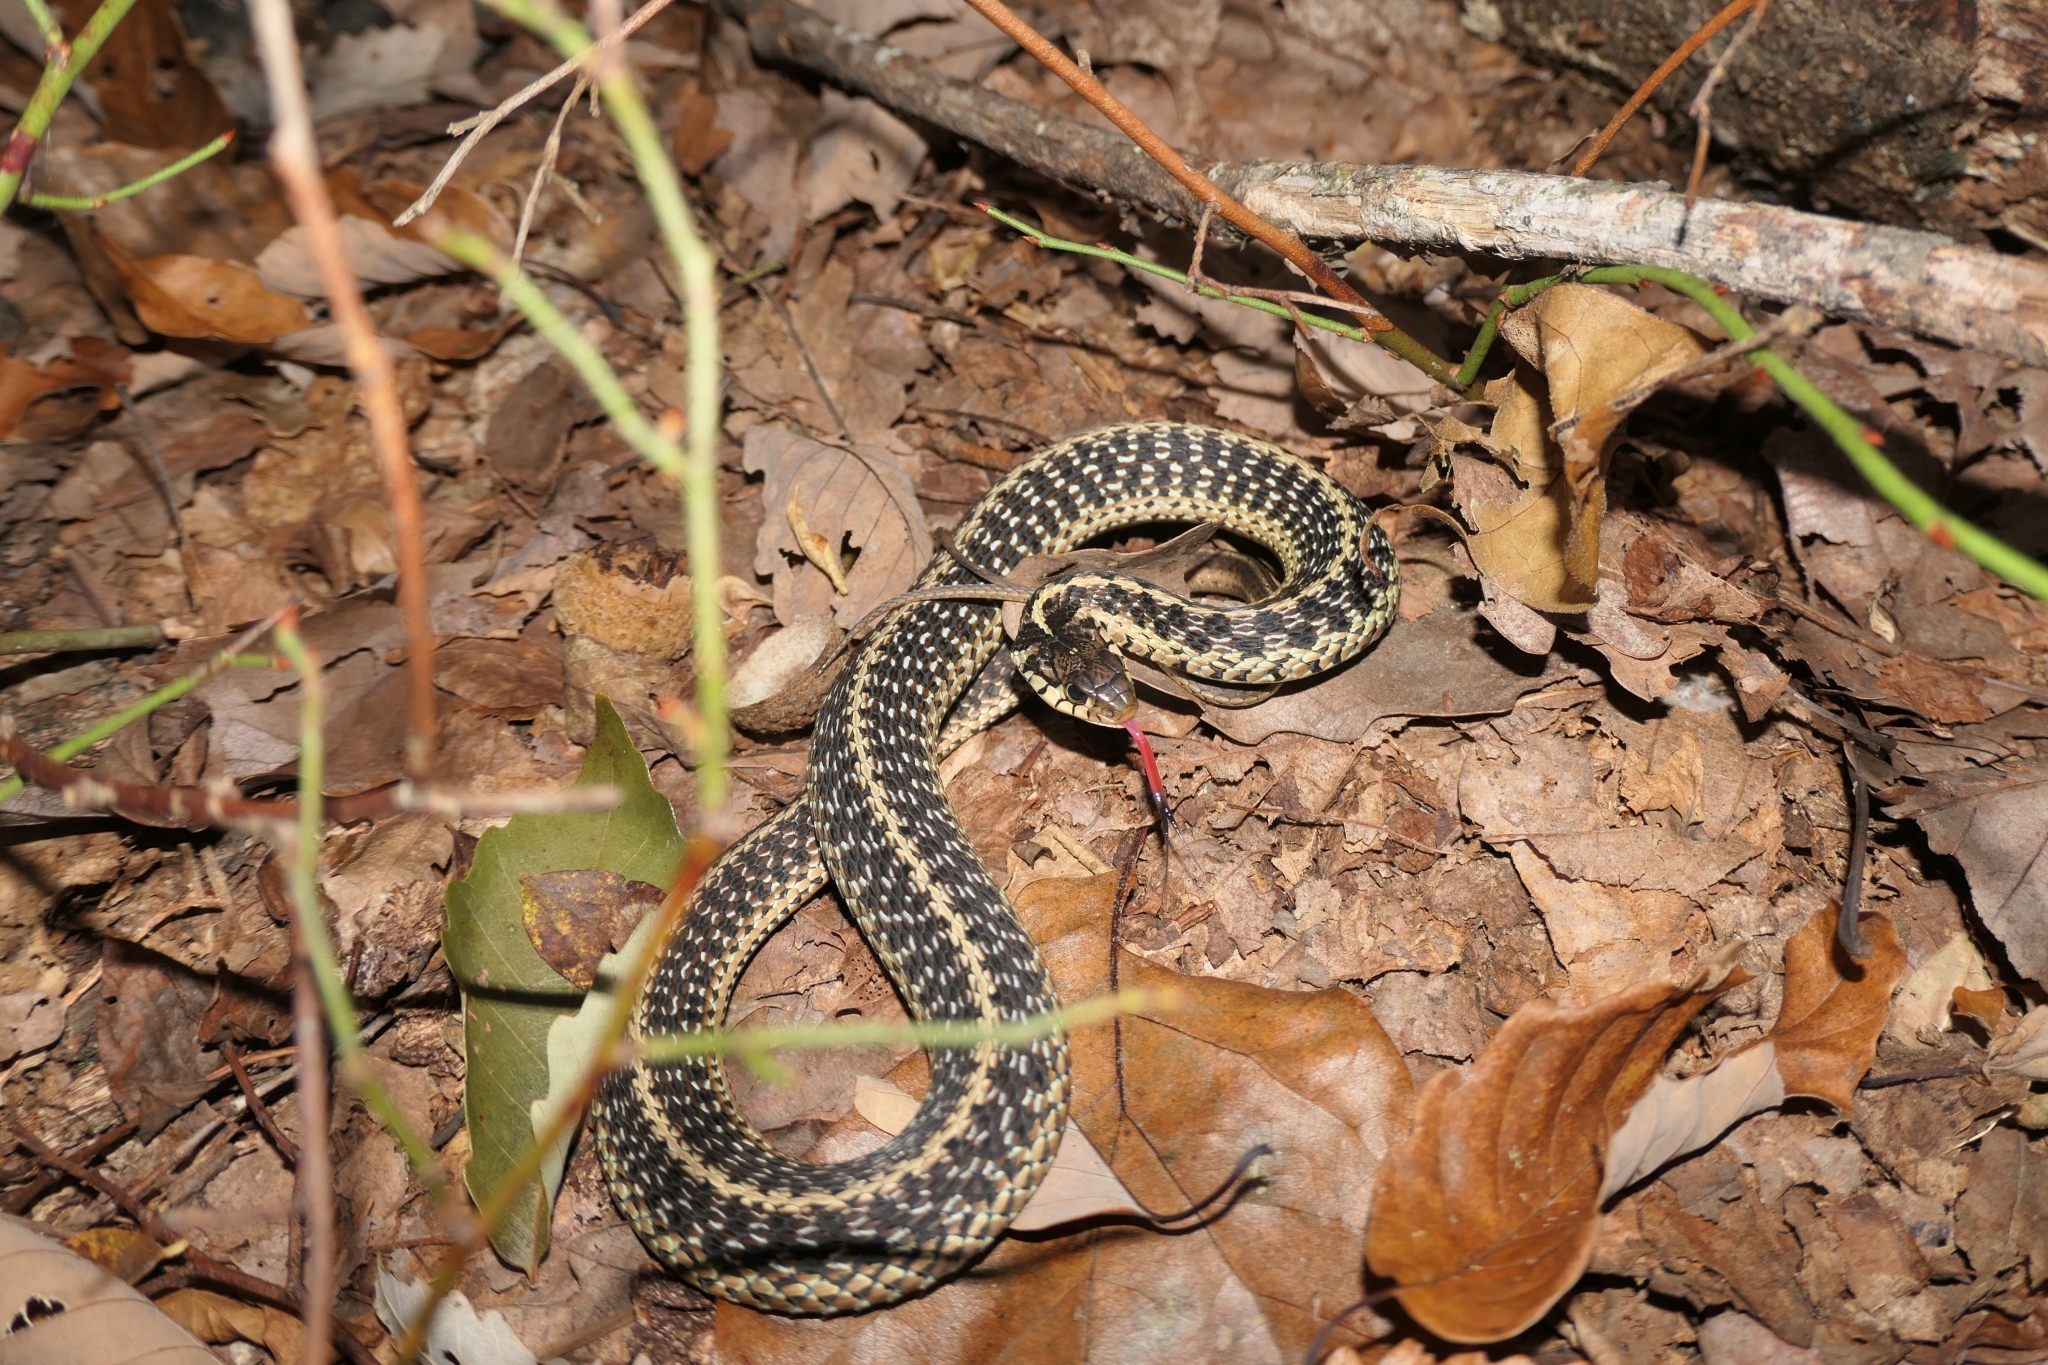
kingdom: Animalia
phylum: Chordata
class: Squamata
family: Colubridae
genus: Thamnophis
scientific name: Thamnophis sirtalis
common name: Common garter snake
